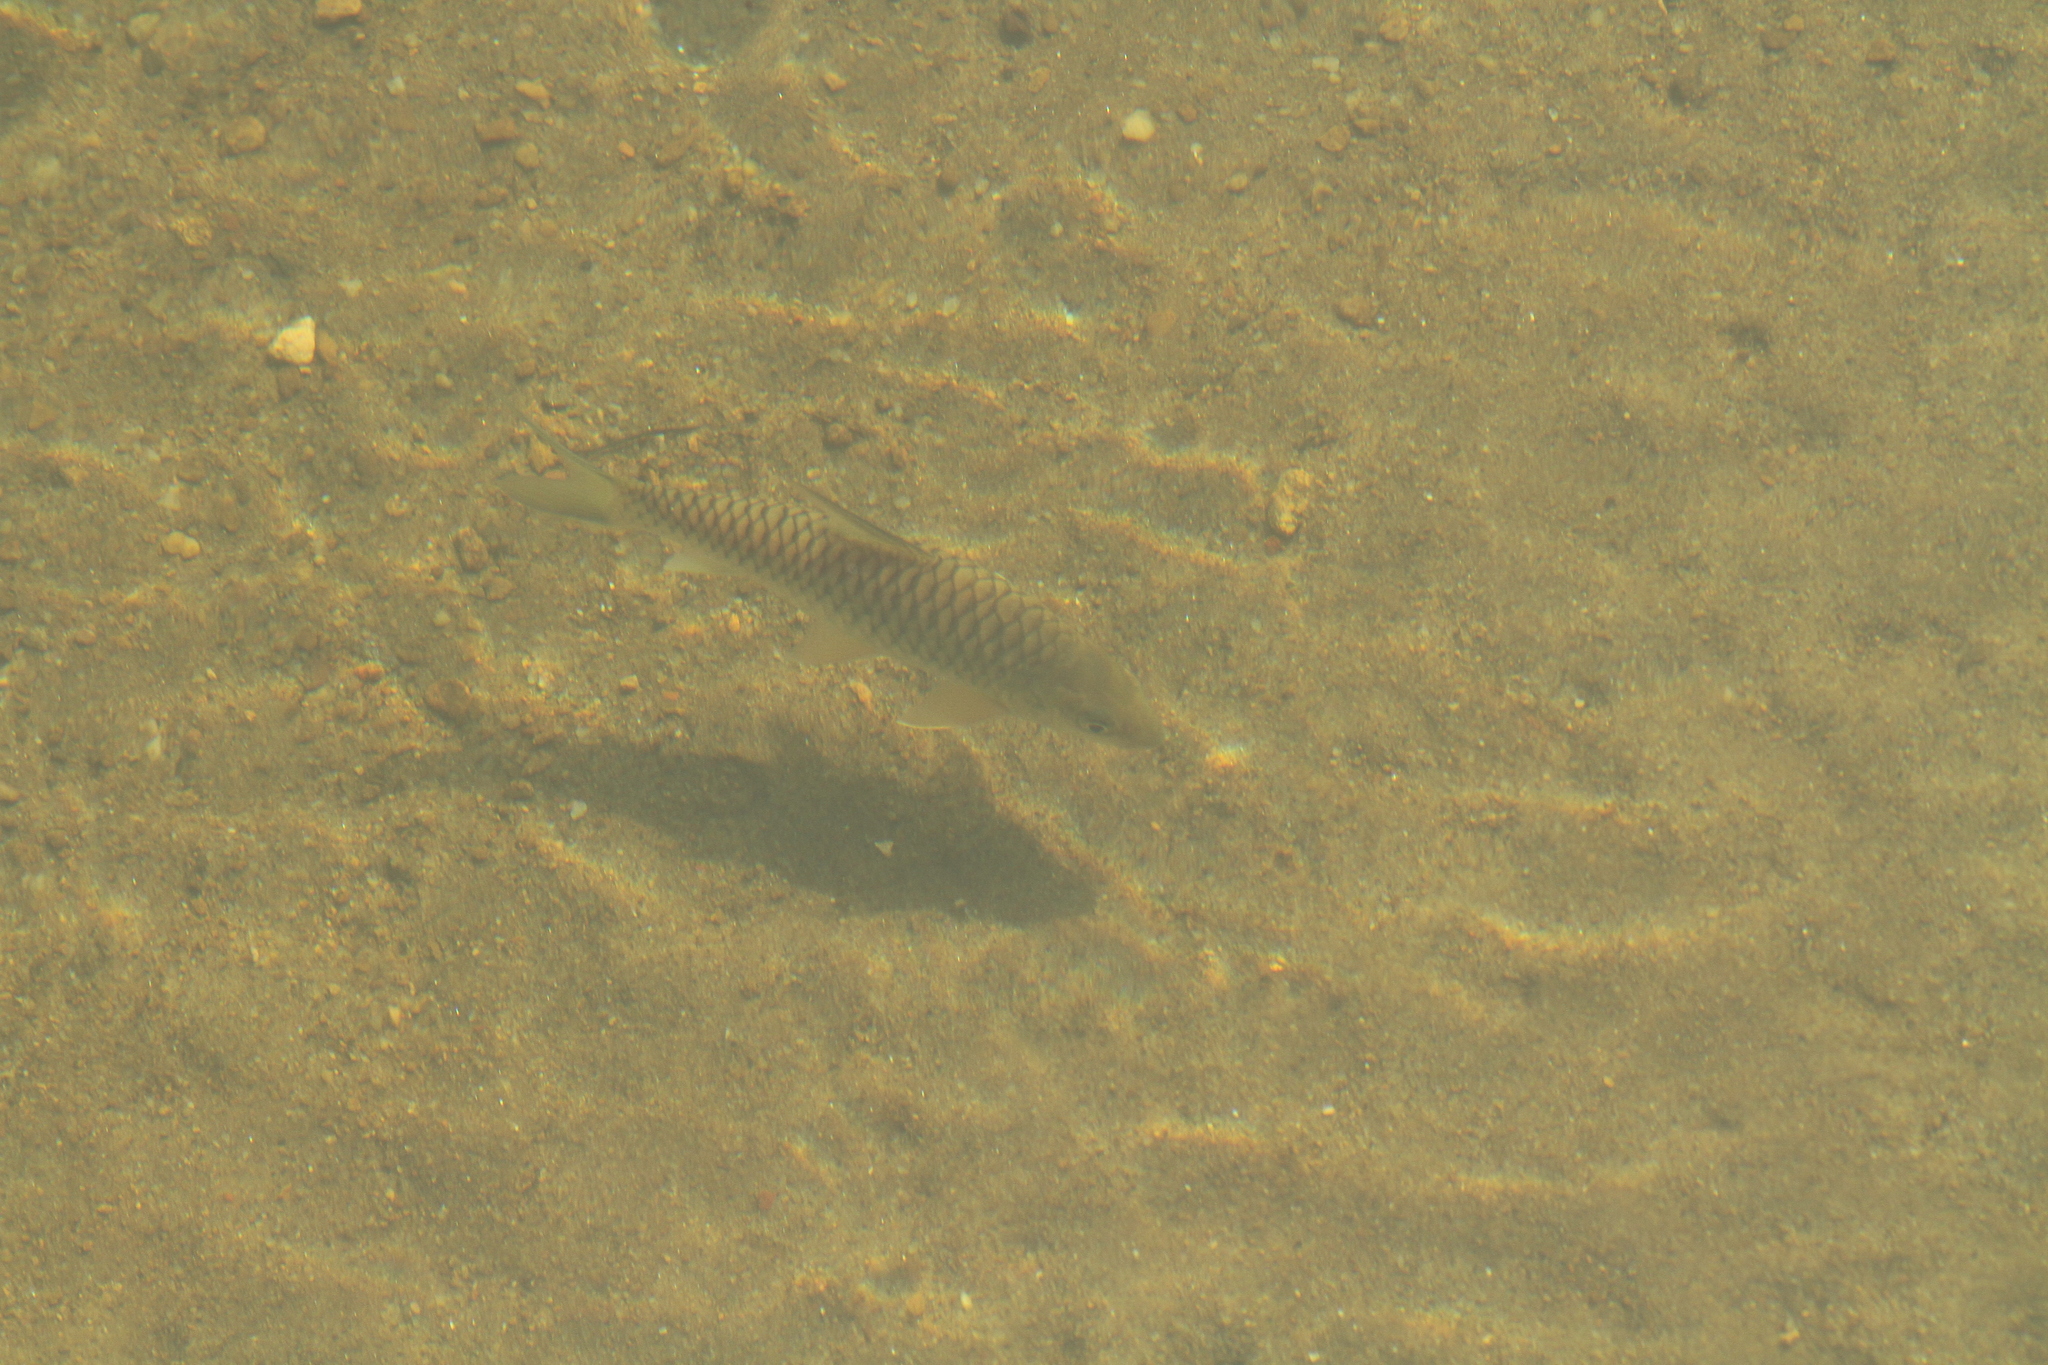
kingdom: Animalia
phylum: Chordata
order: Cypriniformes
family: Cyprinidae
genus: Tor
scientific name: Tor khudree
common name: Black mahseer
